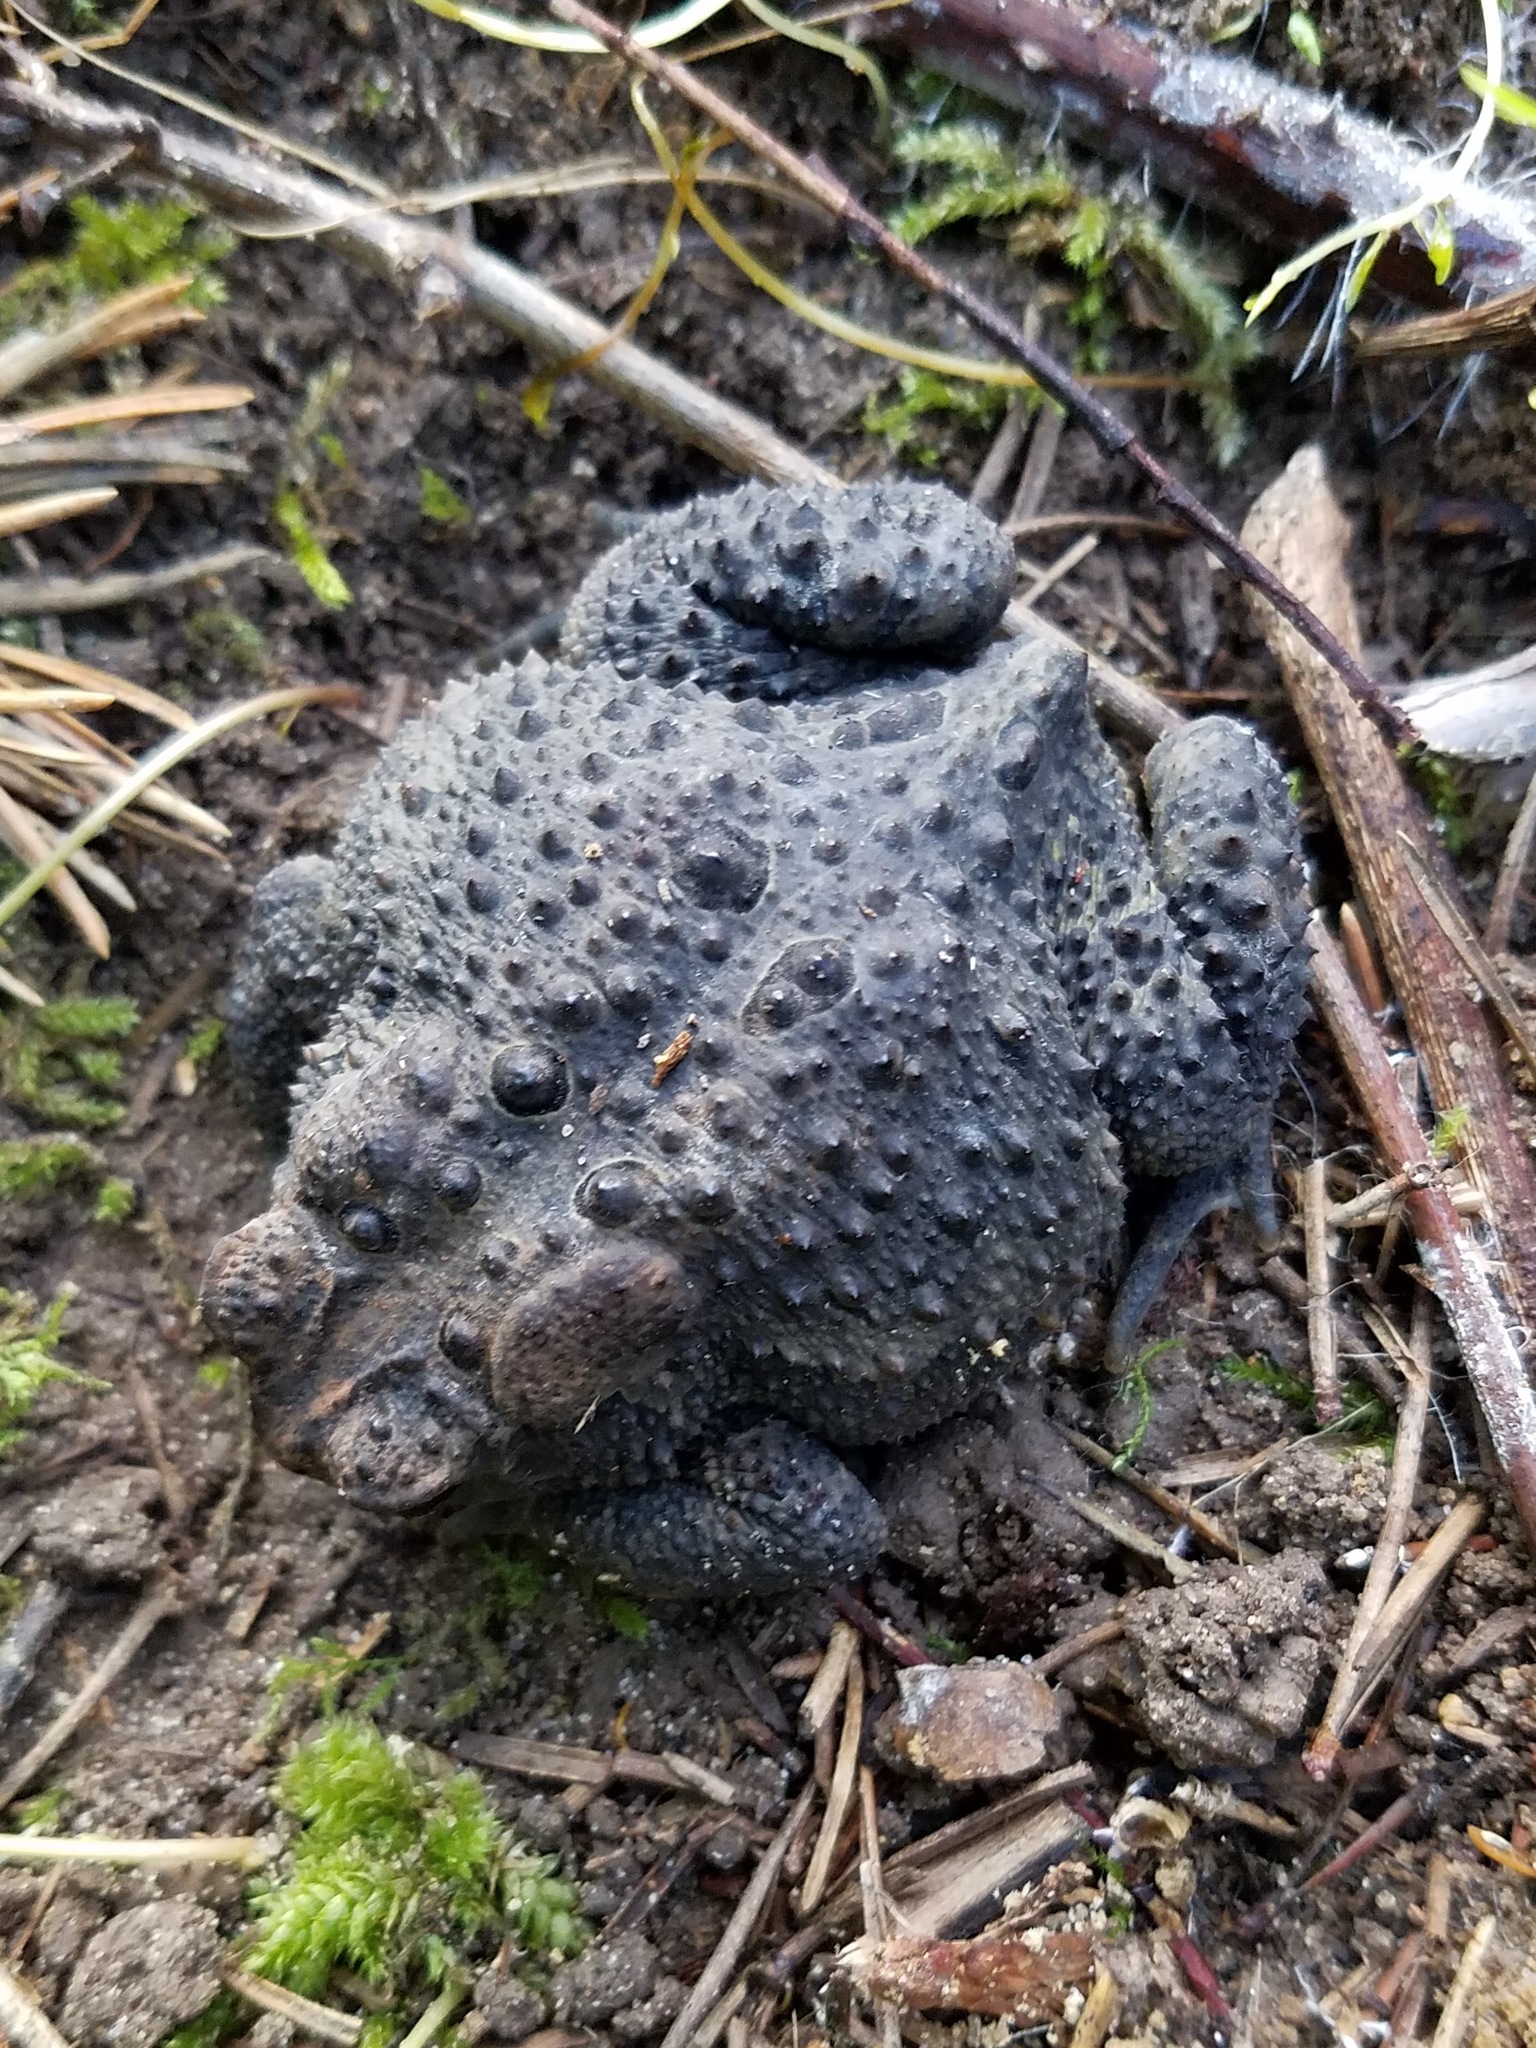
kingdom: Animalia
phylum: Chordata
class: Amphibia
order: Anura
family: Bufonidae
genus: Anaxyrus
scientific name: Anaxyrus americanus
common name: American toad
